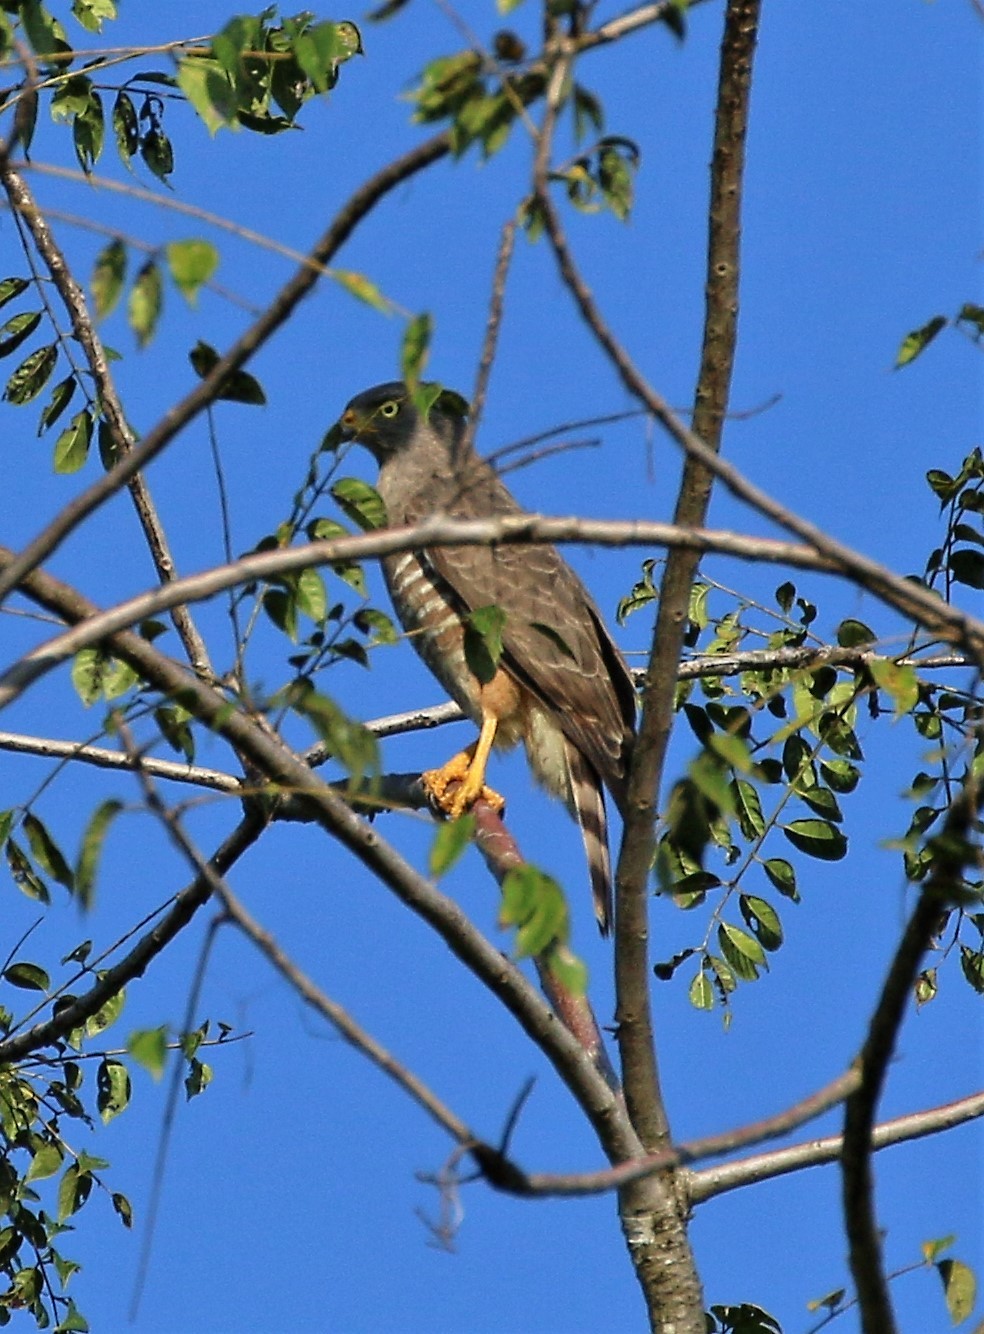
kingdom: Animalia
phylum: Chordata
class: Aves
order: Accipitriformes
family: Accipitridae
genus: Rupornis
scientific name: Rupornis magnirostris
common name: Roadside hawk
